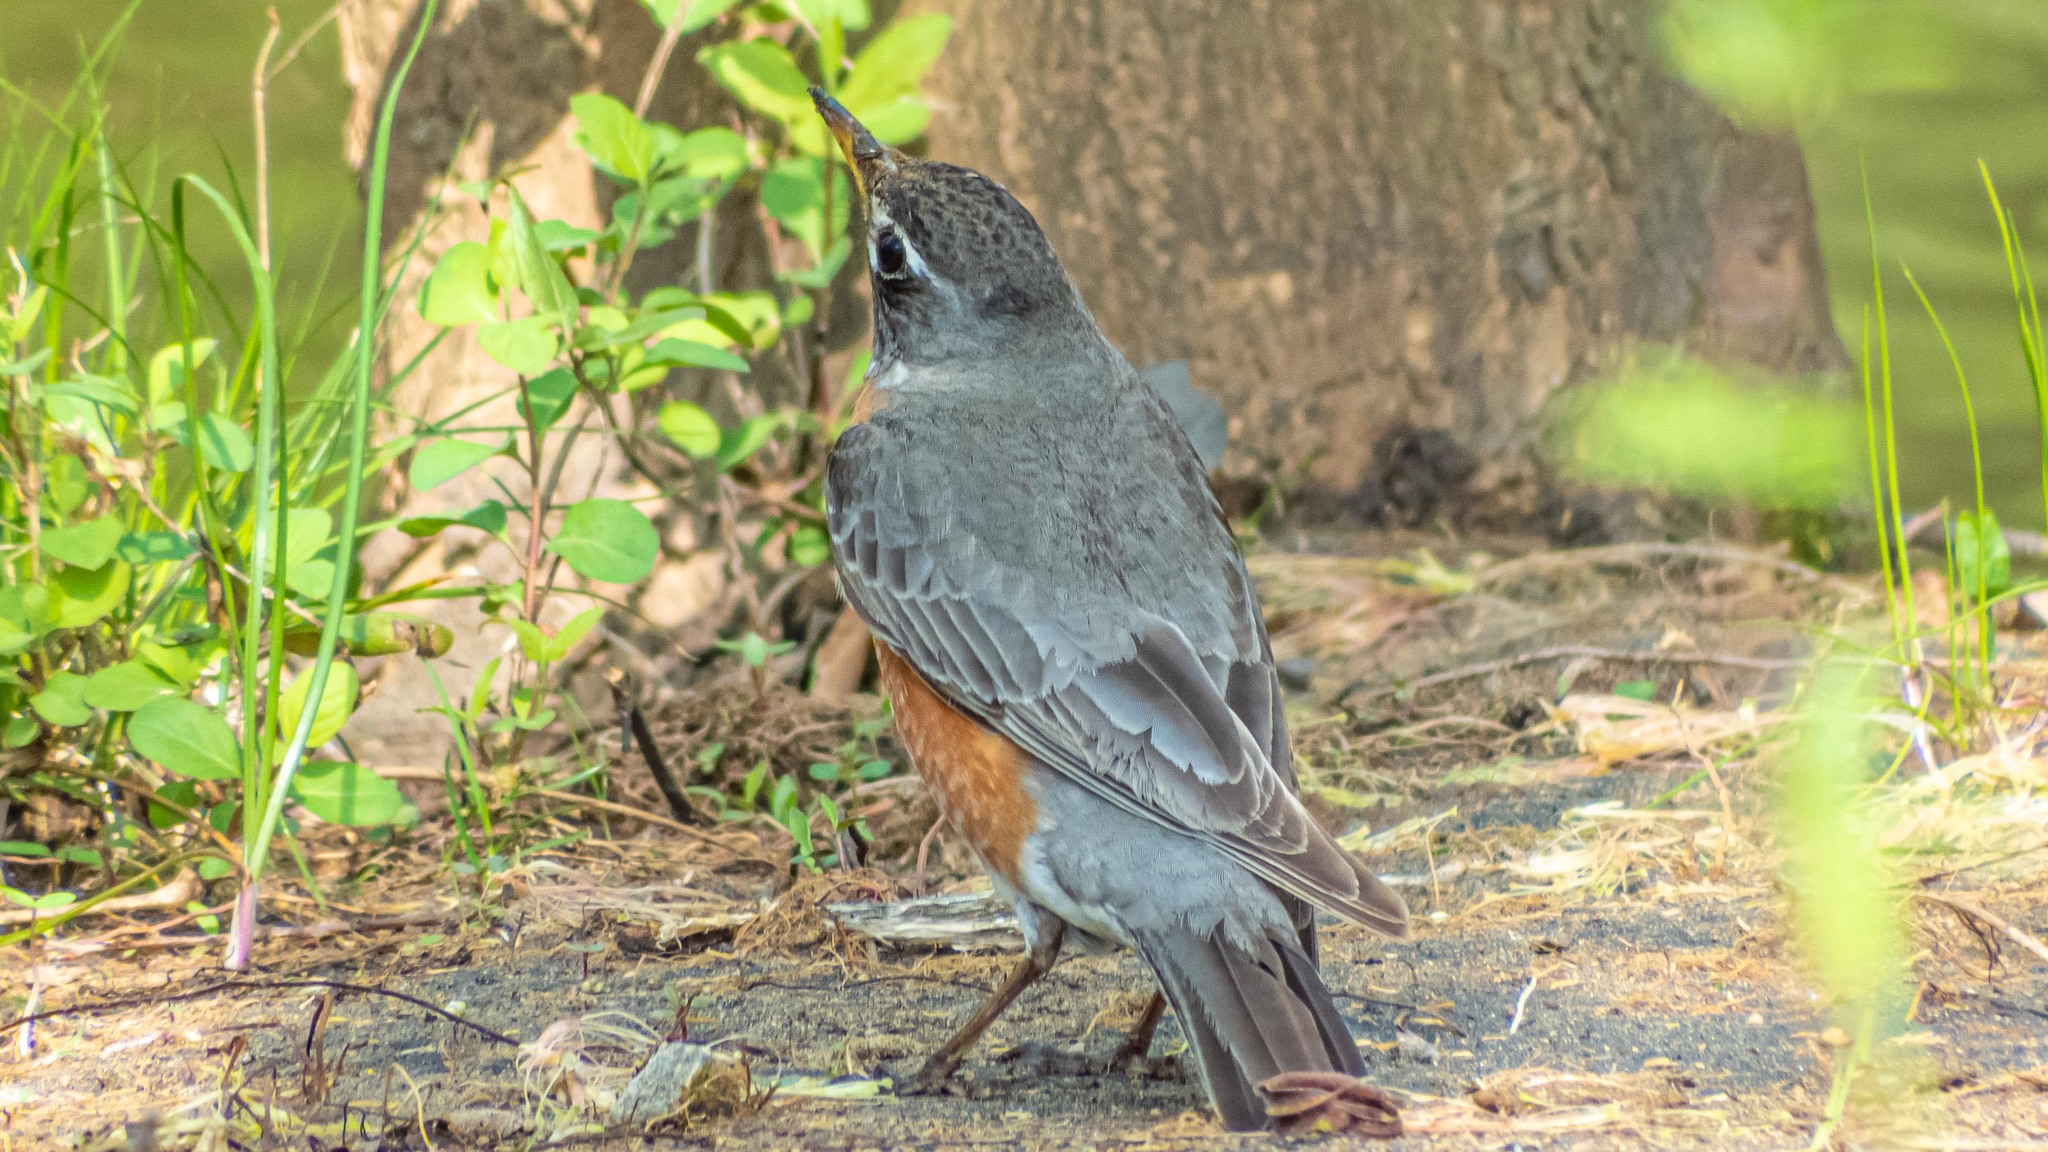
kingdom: Animalia
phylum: Chordata
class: Aves
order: Passeriformes
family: Turdidae
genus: Turdus
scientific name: Turdus migratorius
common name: American robin
